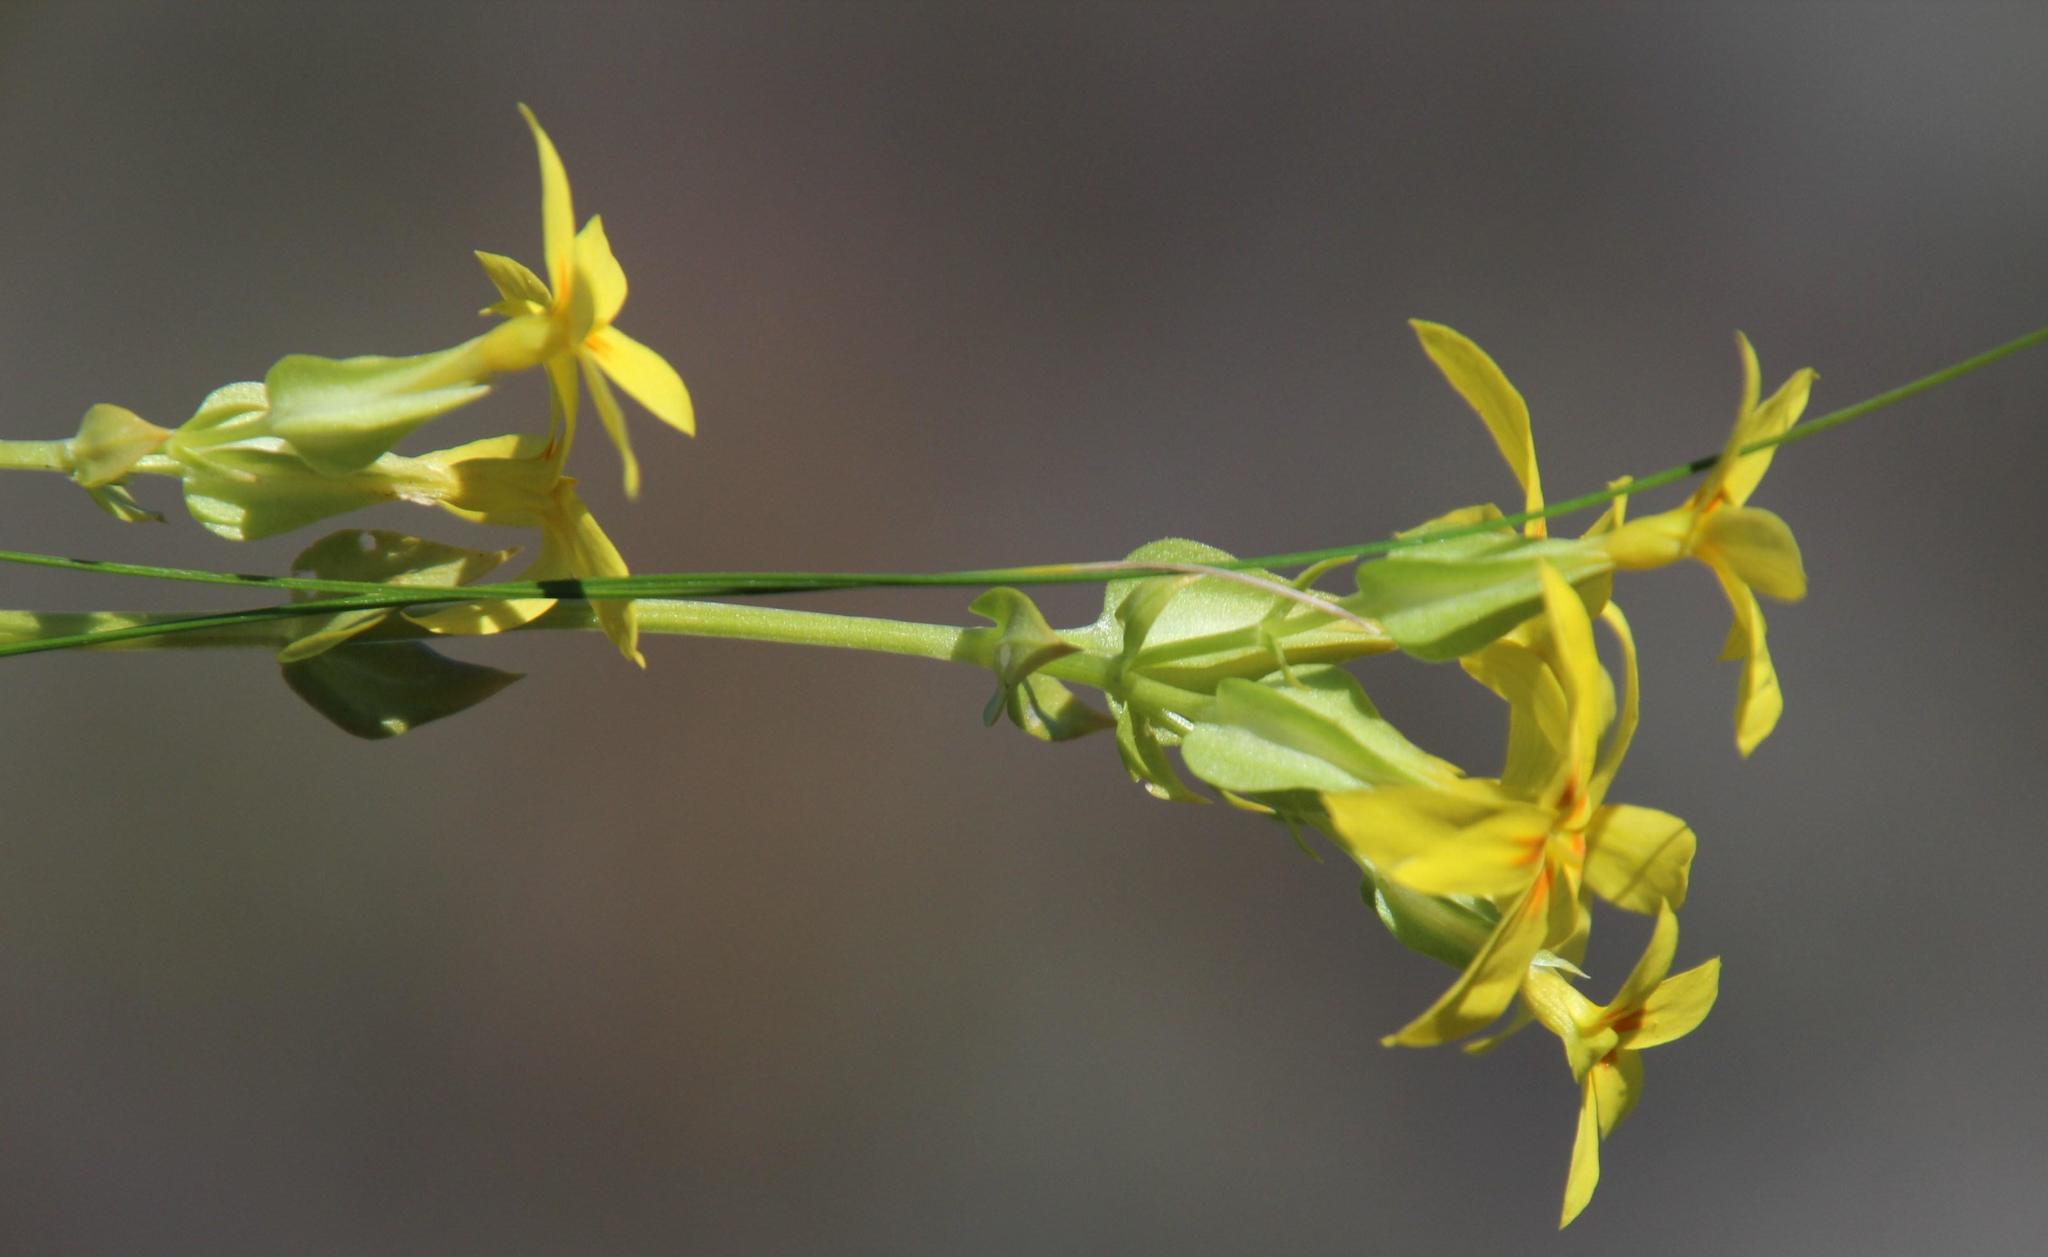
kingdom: Plantae
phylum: Tracheophyta
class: Magnoliopsida
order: Gentianales
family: Gentianaceae
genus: Sebaea
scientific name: Sebaea exacoides
